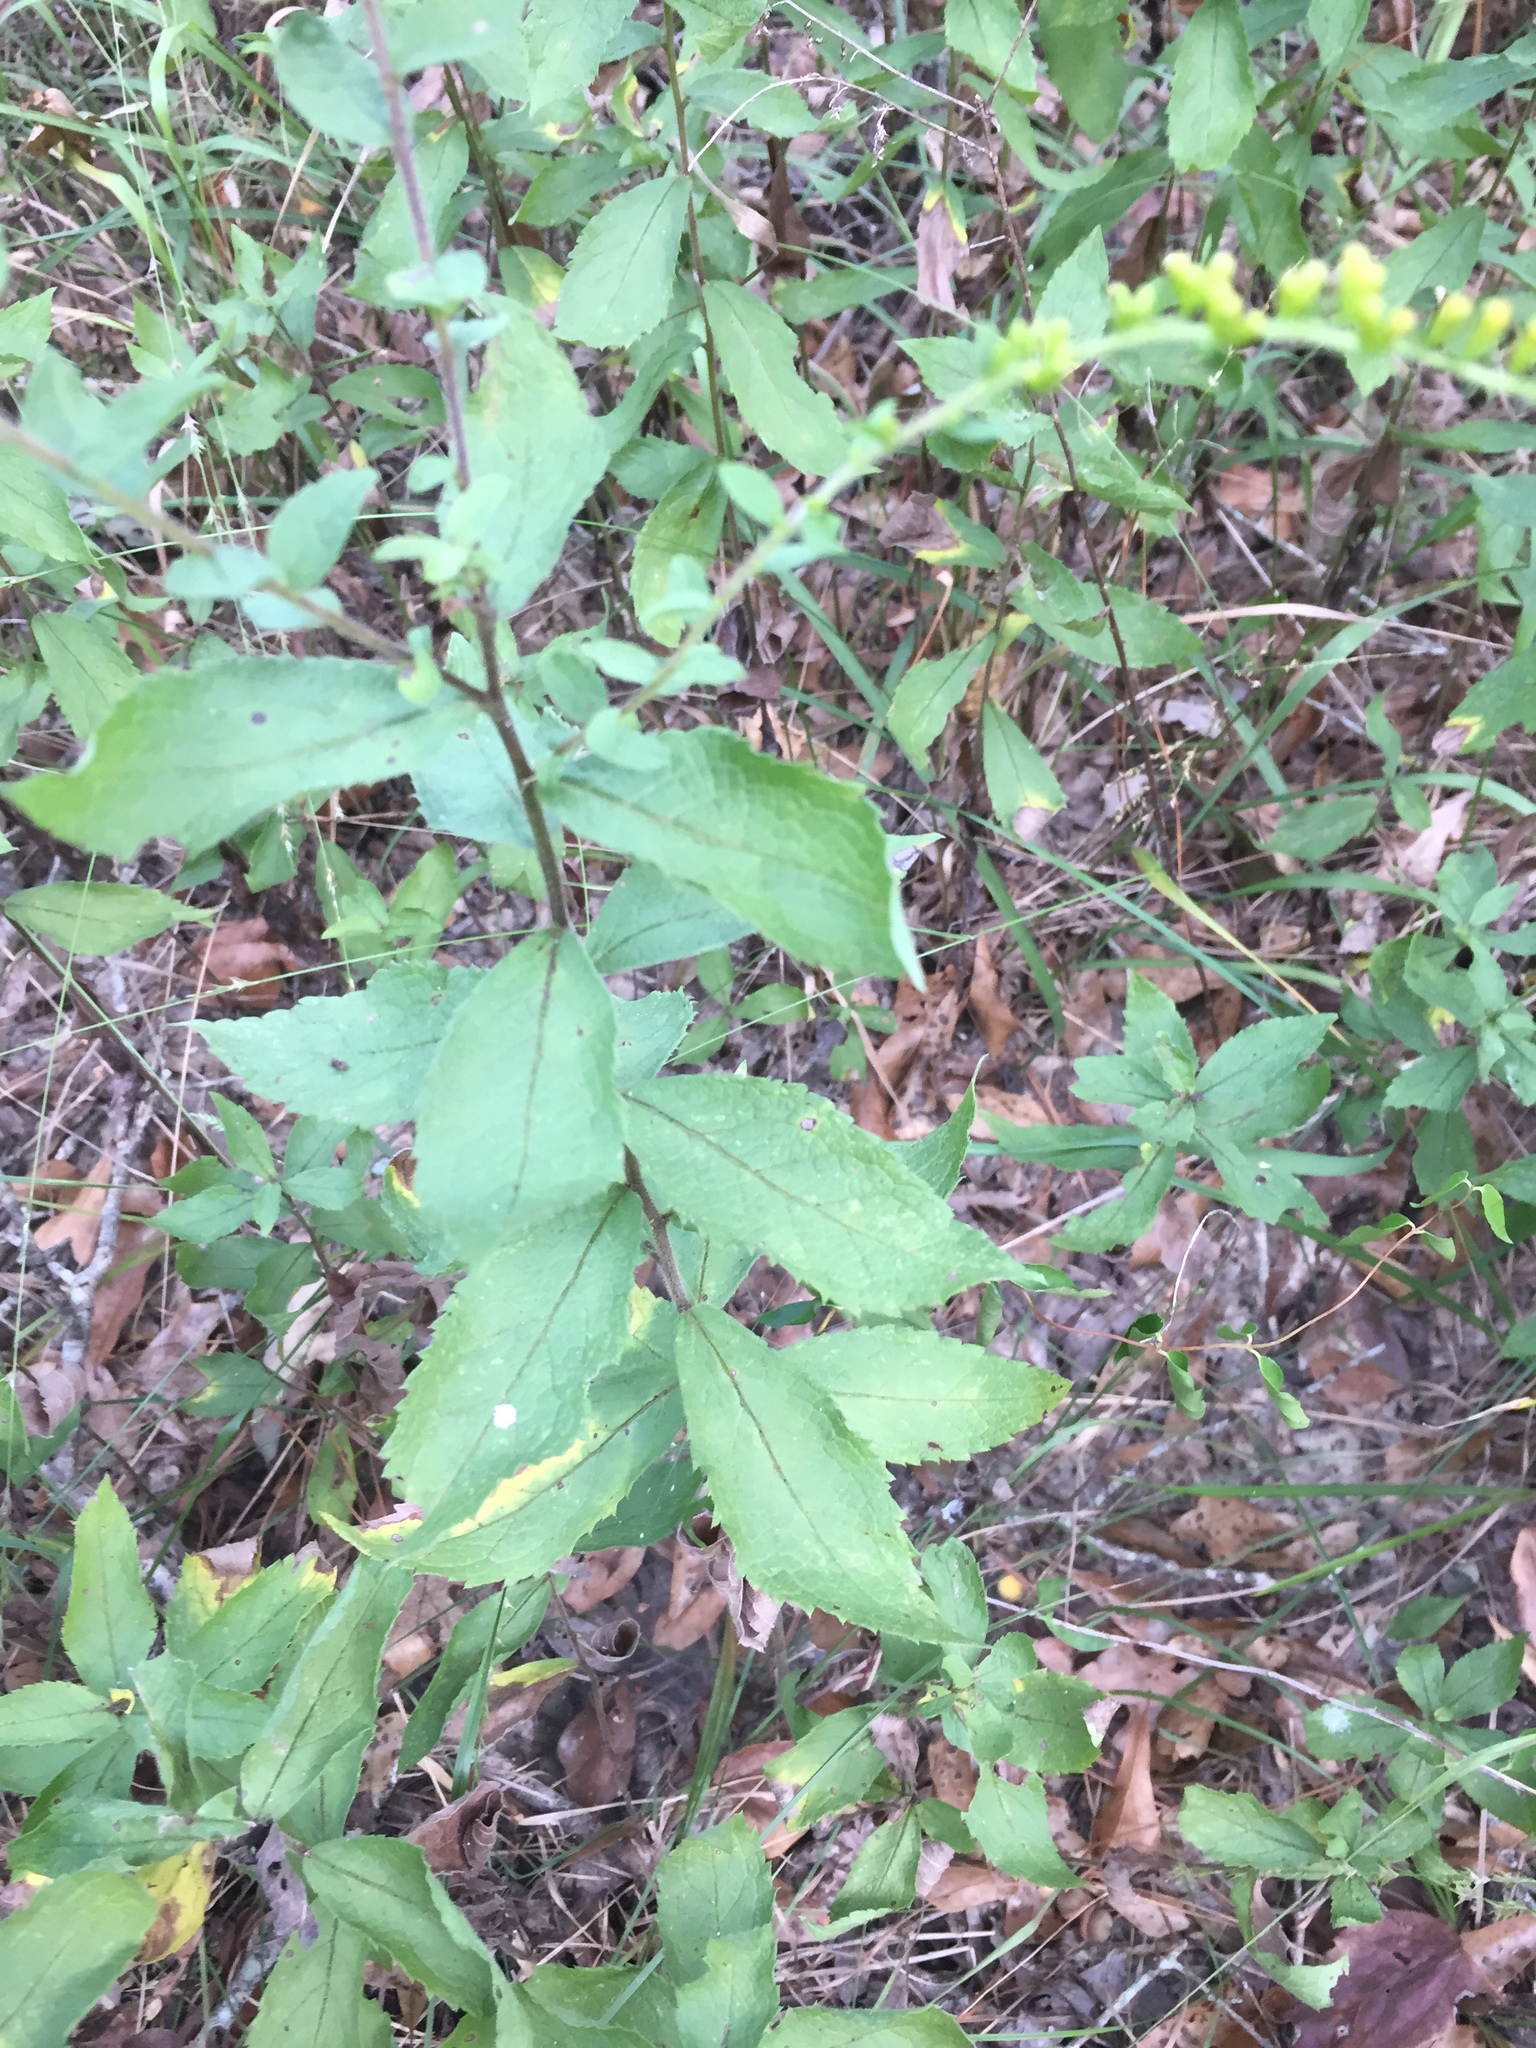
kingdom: Plantae
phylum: Tracheophyta
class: Magnoliopsida
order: Asterales
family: Asteraceae
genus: Solidago
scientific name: Solidago rugosa
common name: Rough-stemmed goldenrod
